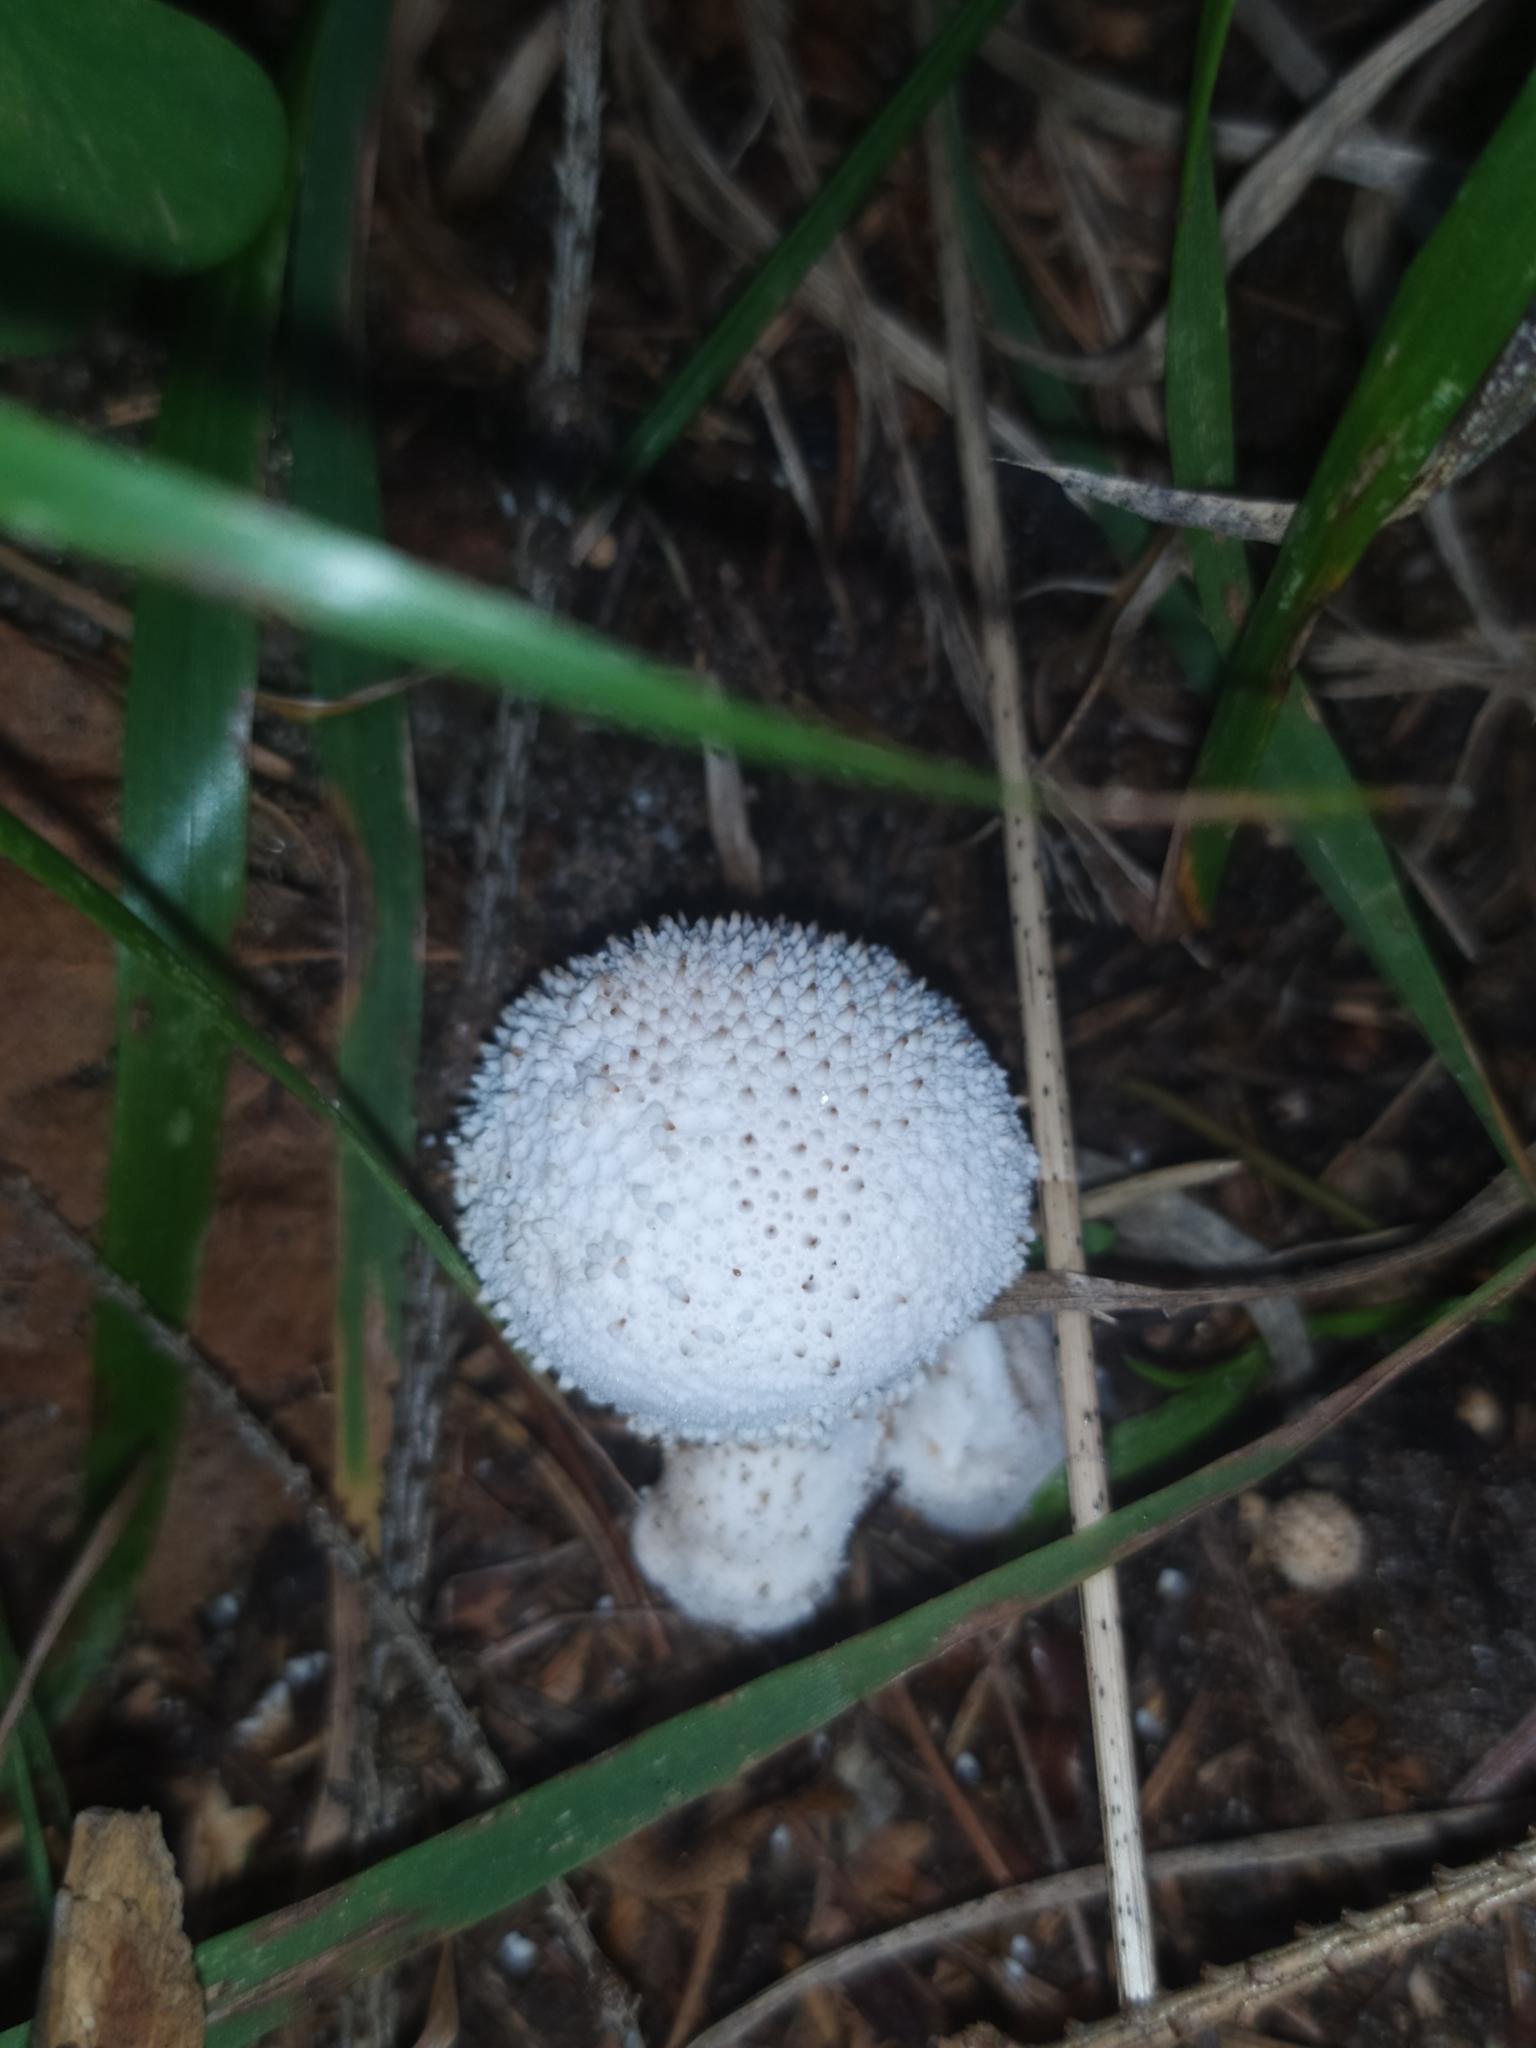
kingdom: Fungi
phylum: Basidiomycota
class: Agaricomycetes
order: Agaricales
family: Lycoperdaceae
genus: Lycoperdon
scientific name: Lycoperdon perlatum
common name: Common puffball
